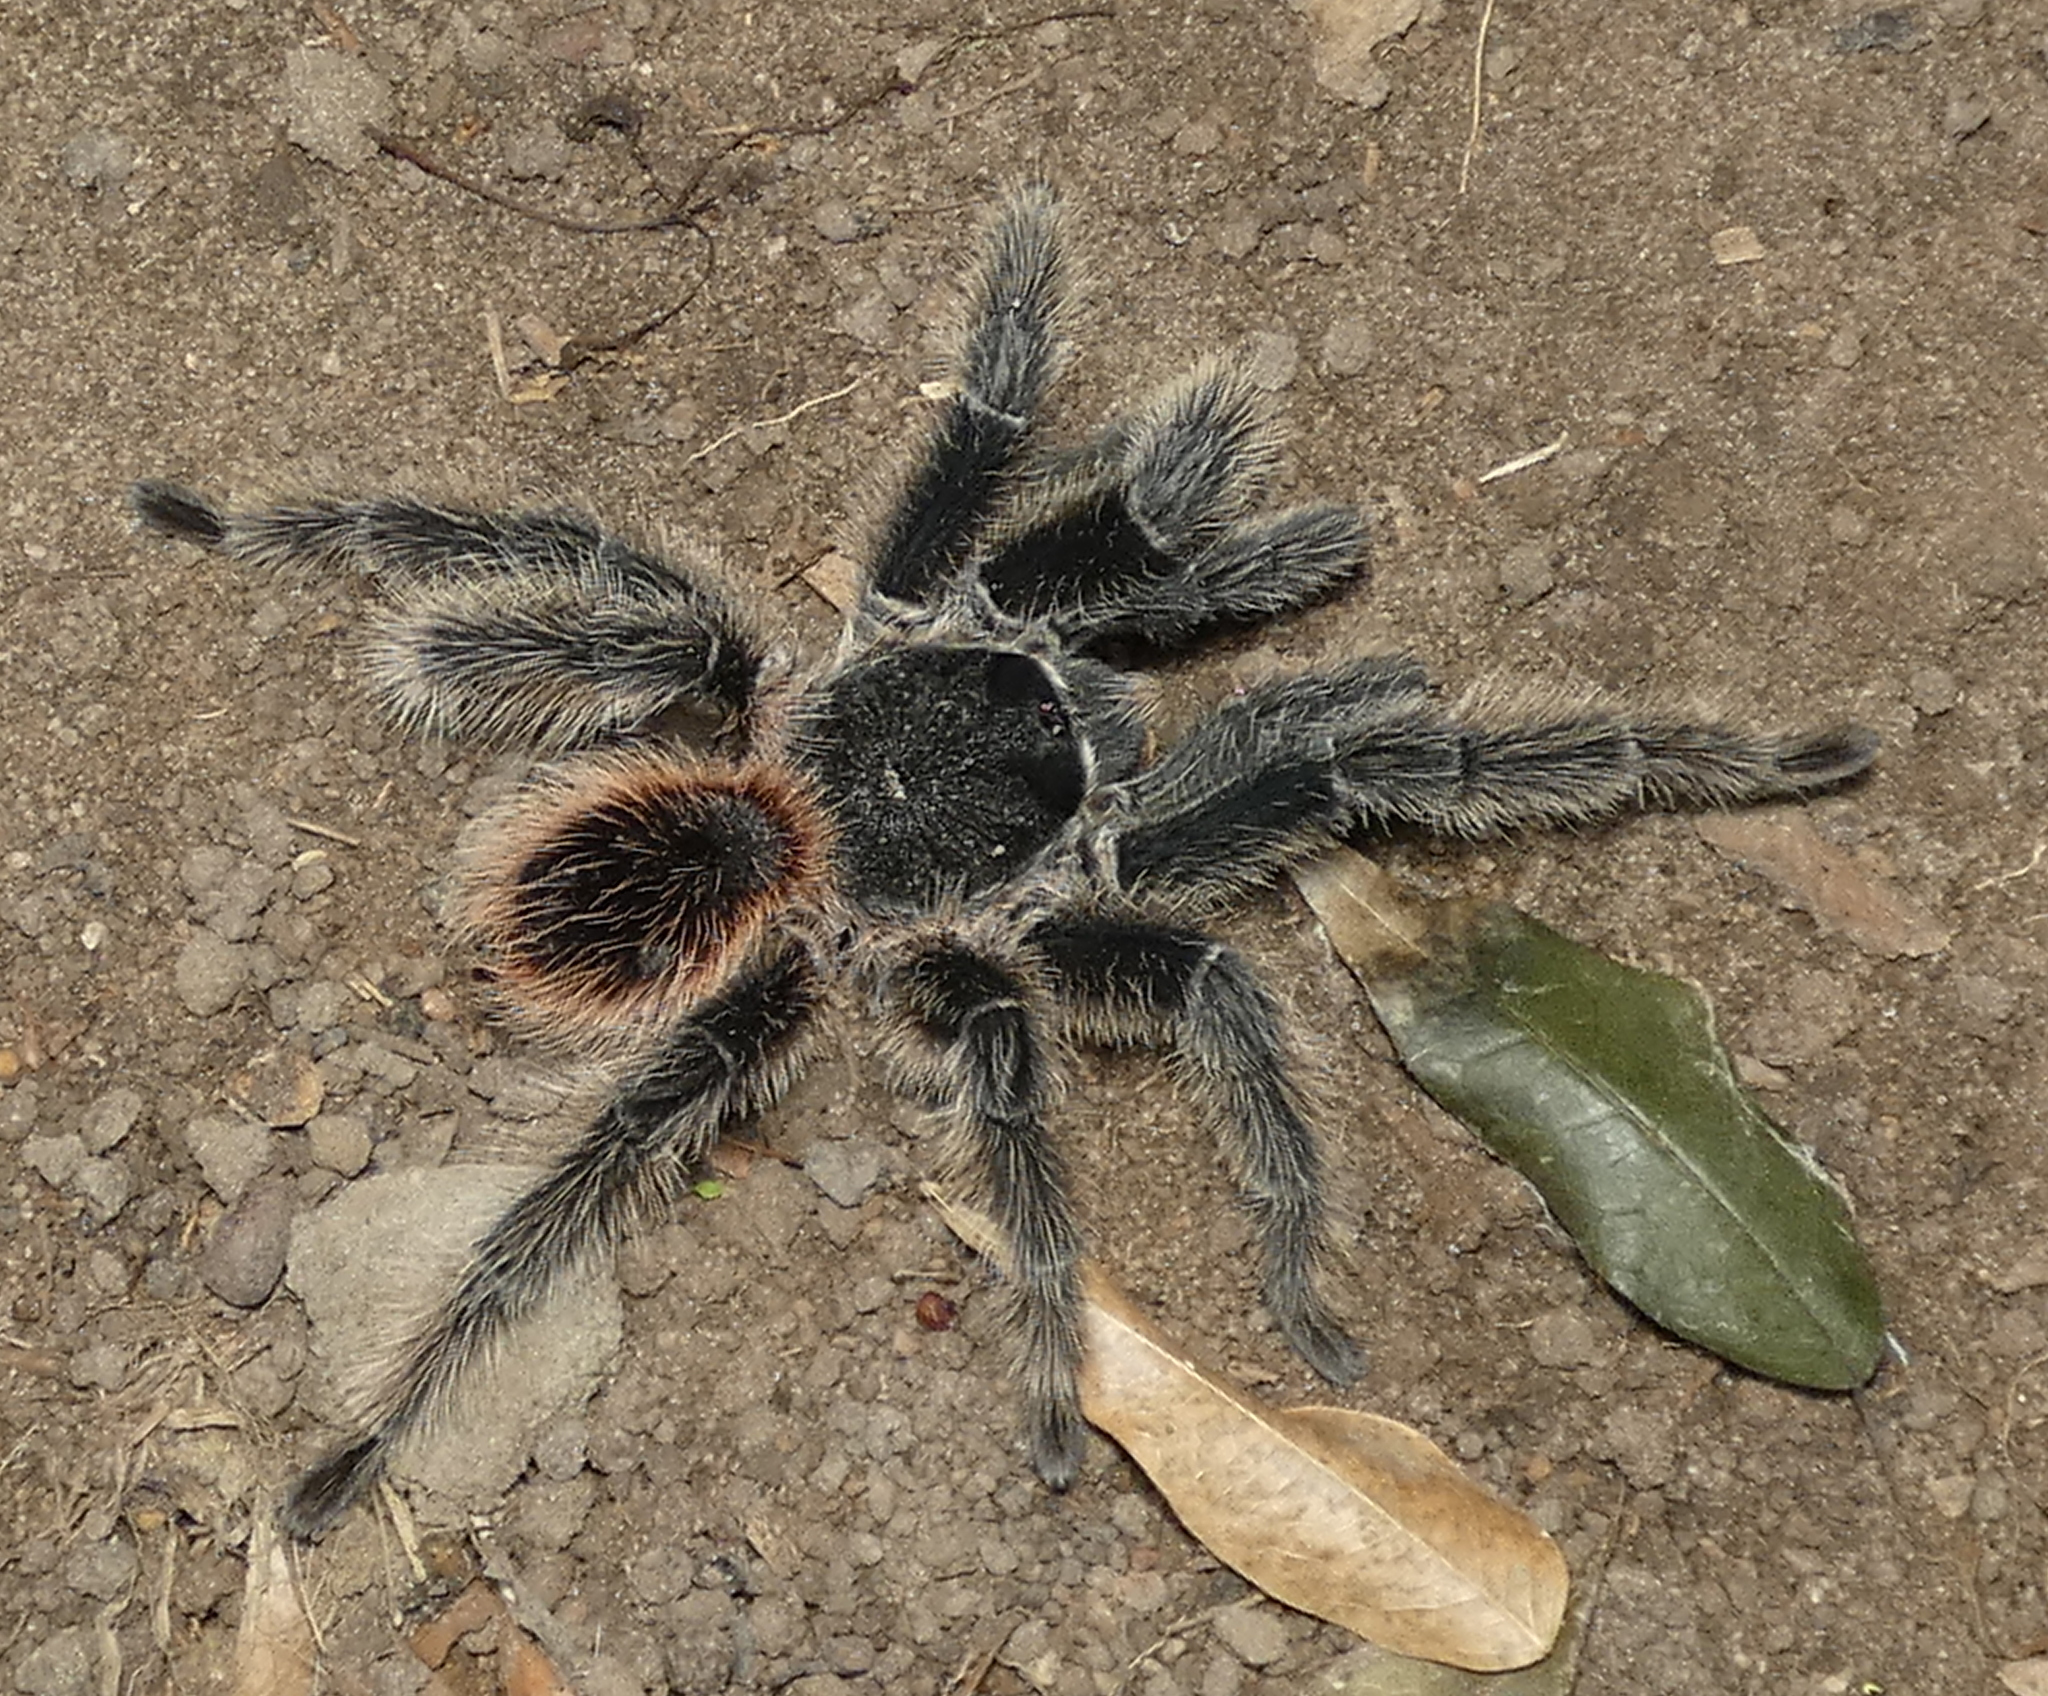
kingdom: Animalia
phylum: Arthropoda
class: Arachnida
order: Araneae
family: Theraphosidae
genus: Lasiodora
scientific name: Lasiodora parahybana
